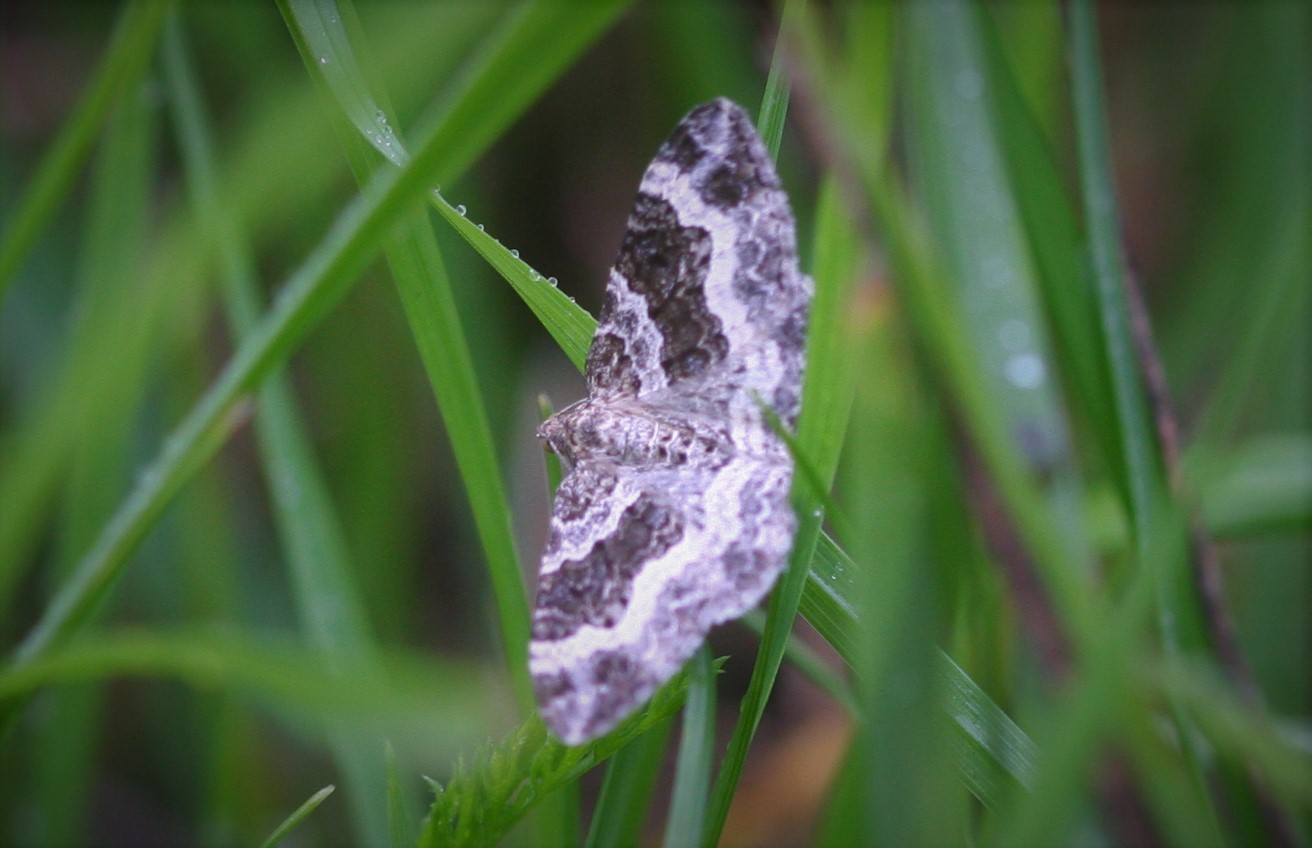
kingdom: Animalia
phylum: Arthropoda
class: Insecta
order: Lepidoptera
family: Geometridae
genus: Epirrhoe
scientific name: Epirrhoe alternata
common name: Common carpet
